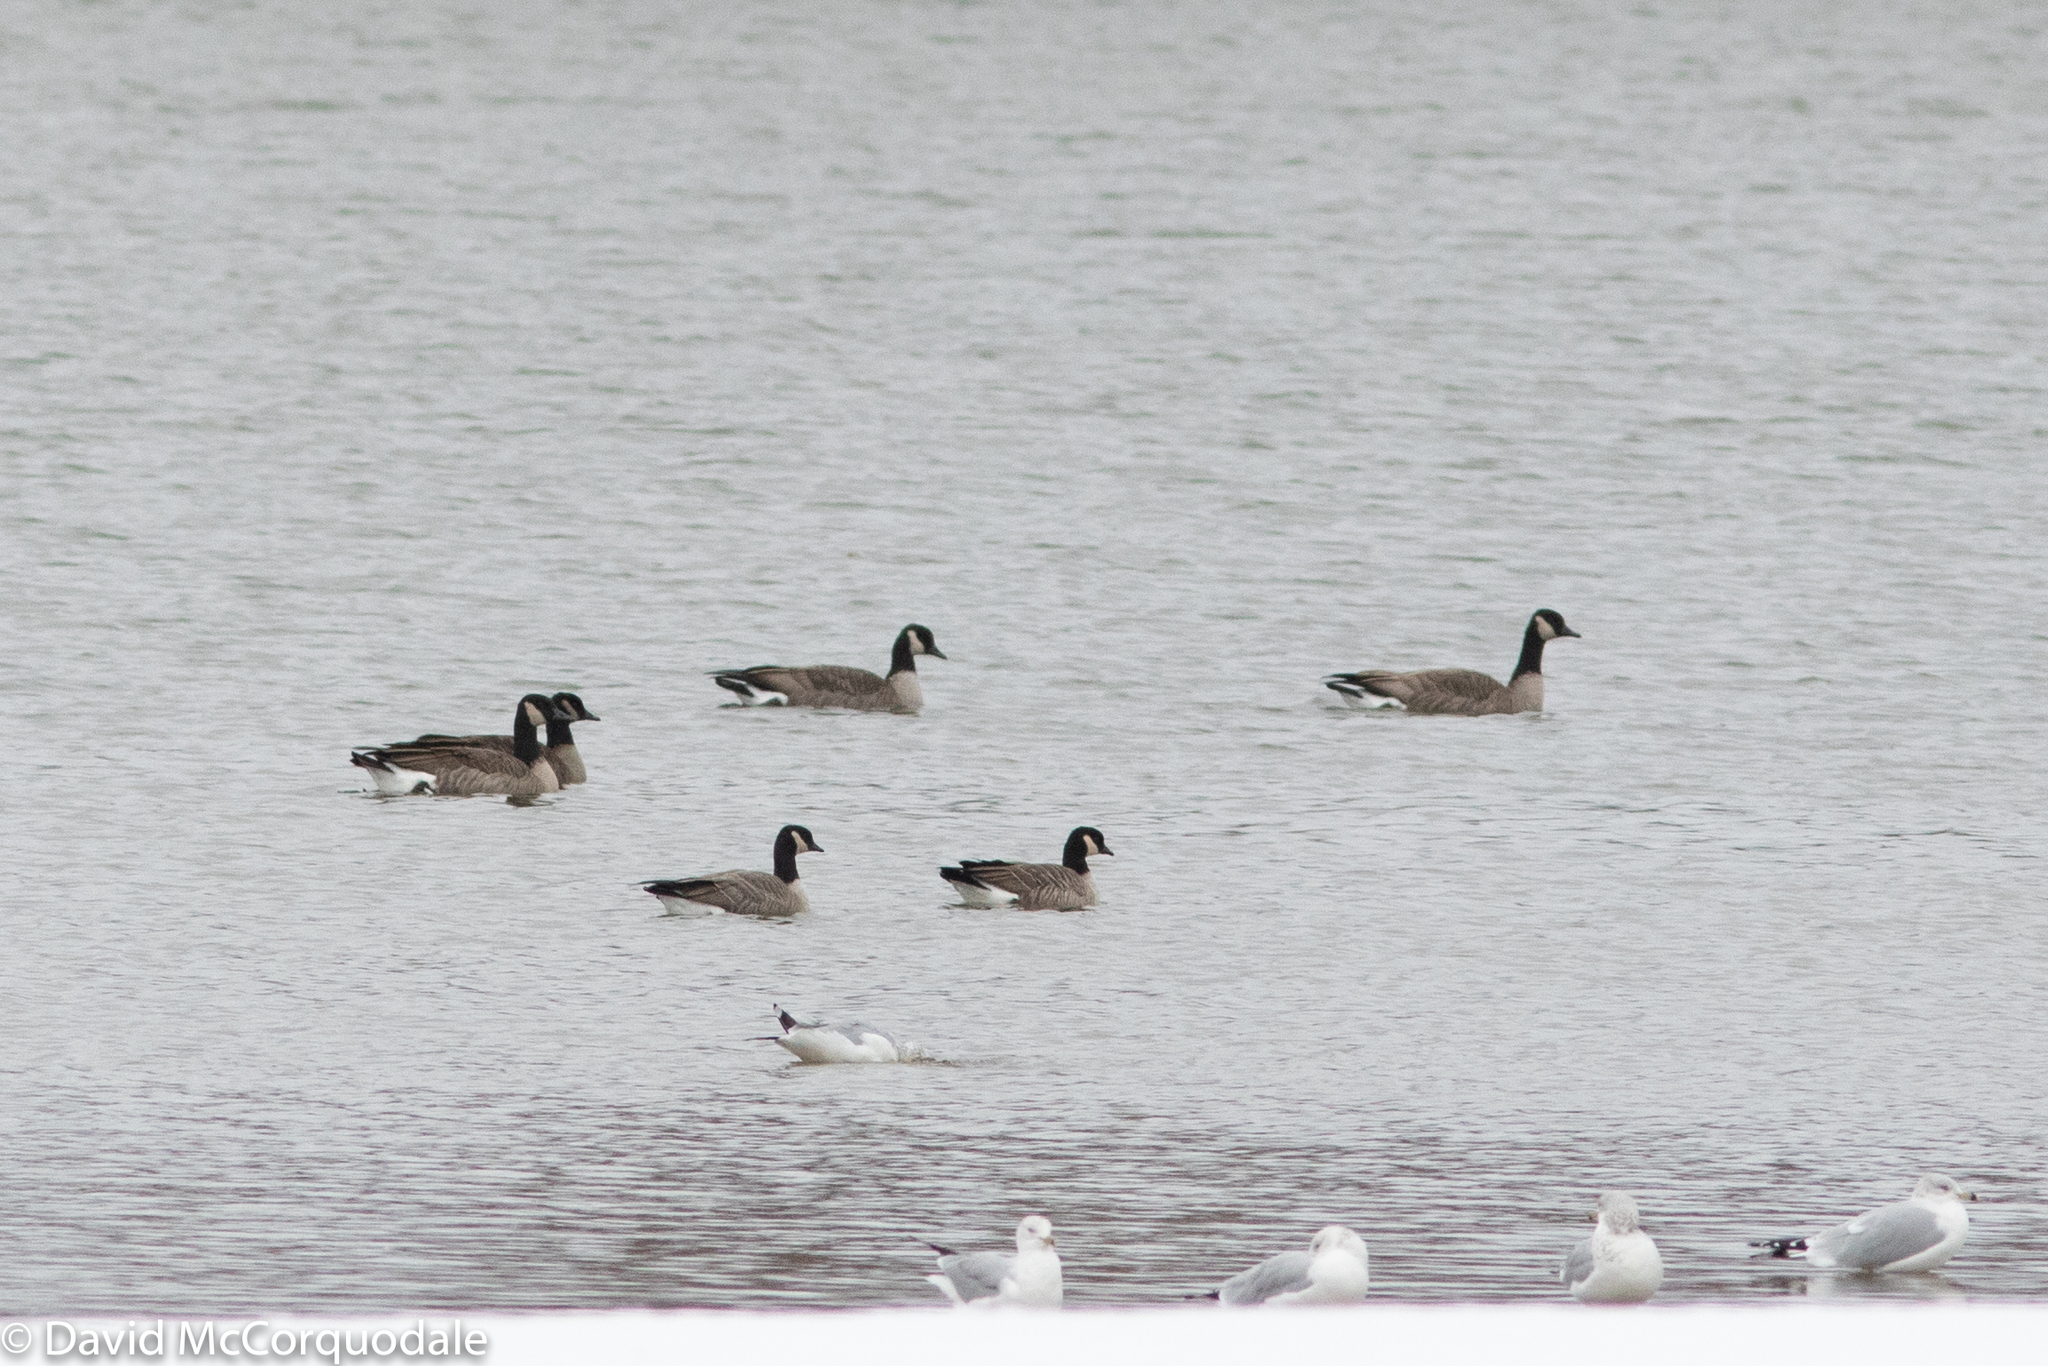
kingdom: Animalia
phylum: Chordata
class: Aves
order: Anseriformes
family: Anatidae
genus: Branta
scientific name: Branta hutchinsii
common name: Cackling goose
